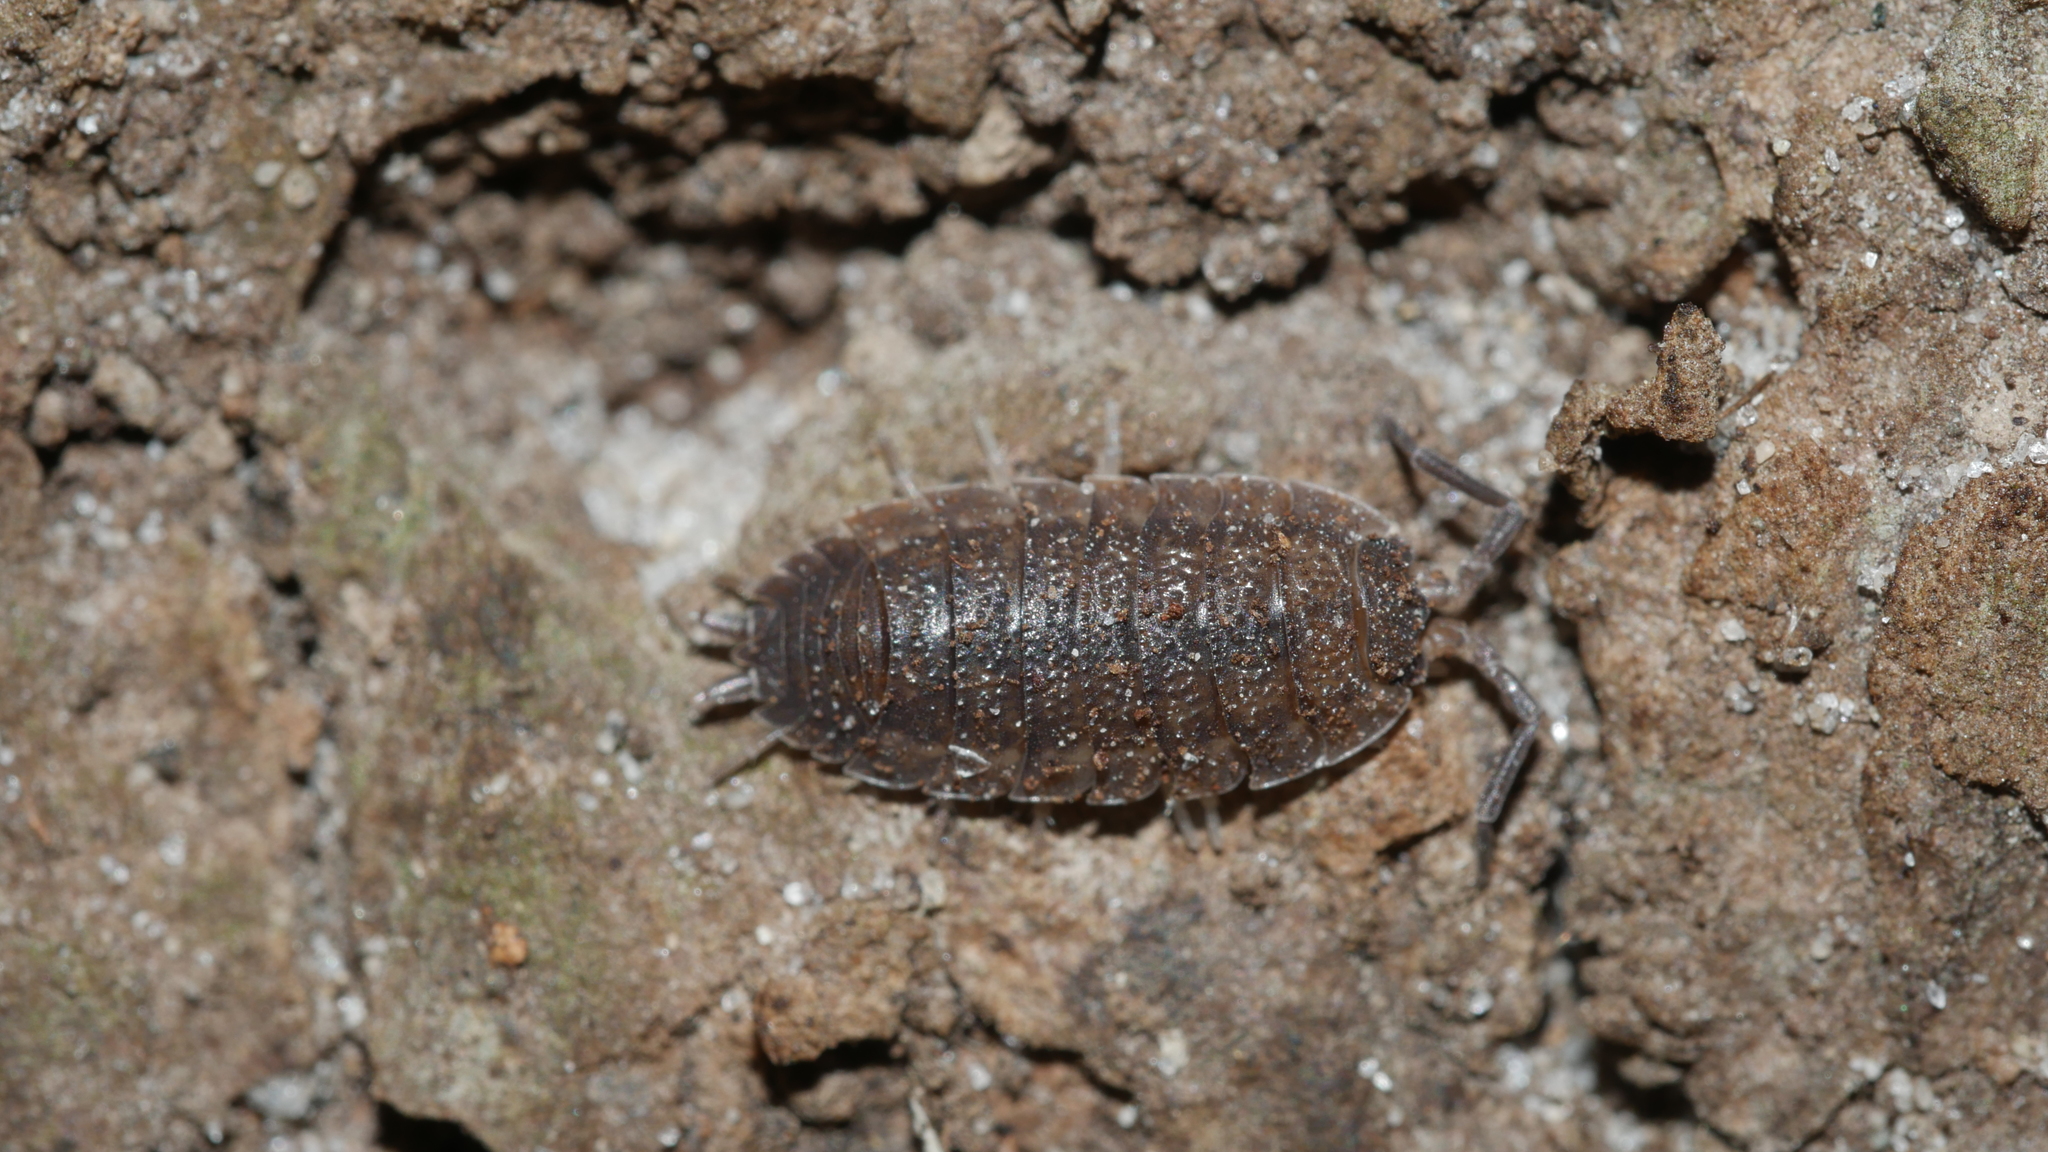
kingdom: Animalia
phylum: Arthropoda
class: Malacostraca
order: Isopoda
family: Porcellionidae
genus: Porcellio
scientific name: Porcellio scaber
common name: Common rough woodlouse
